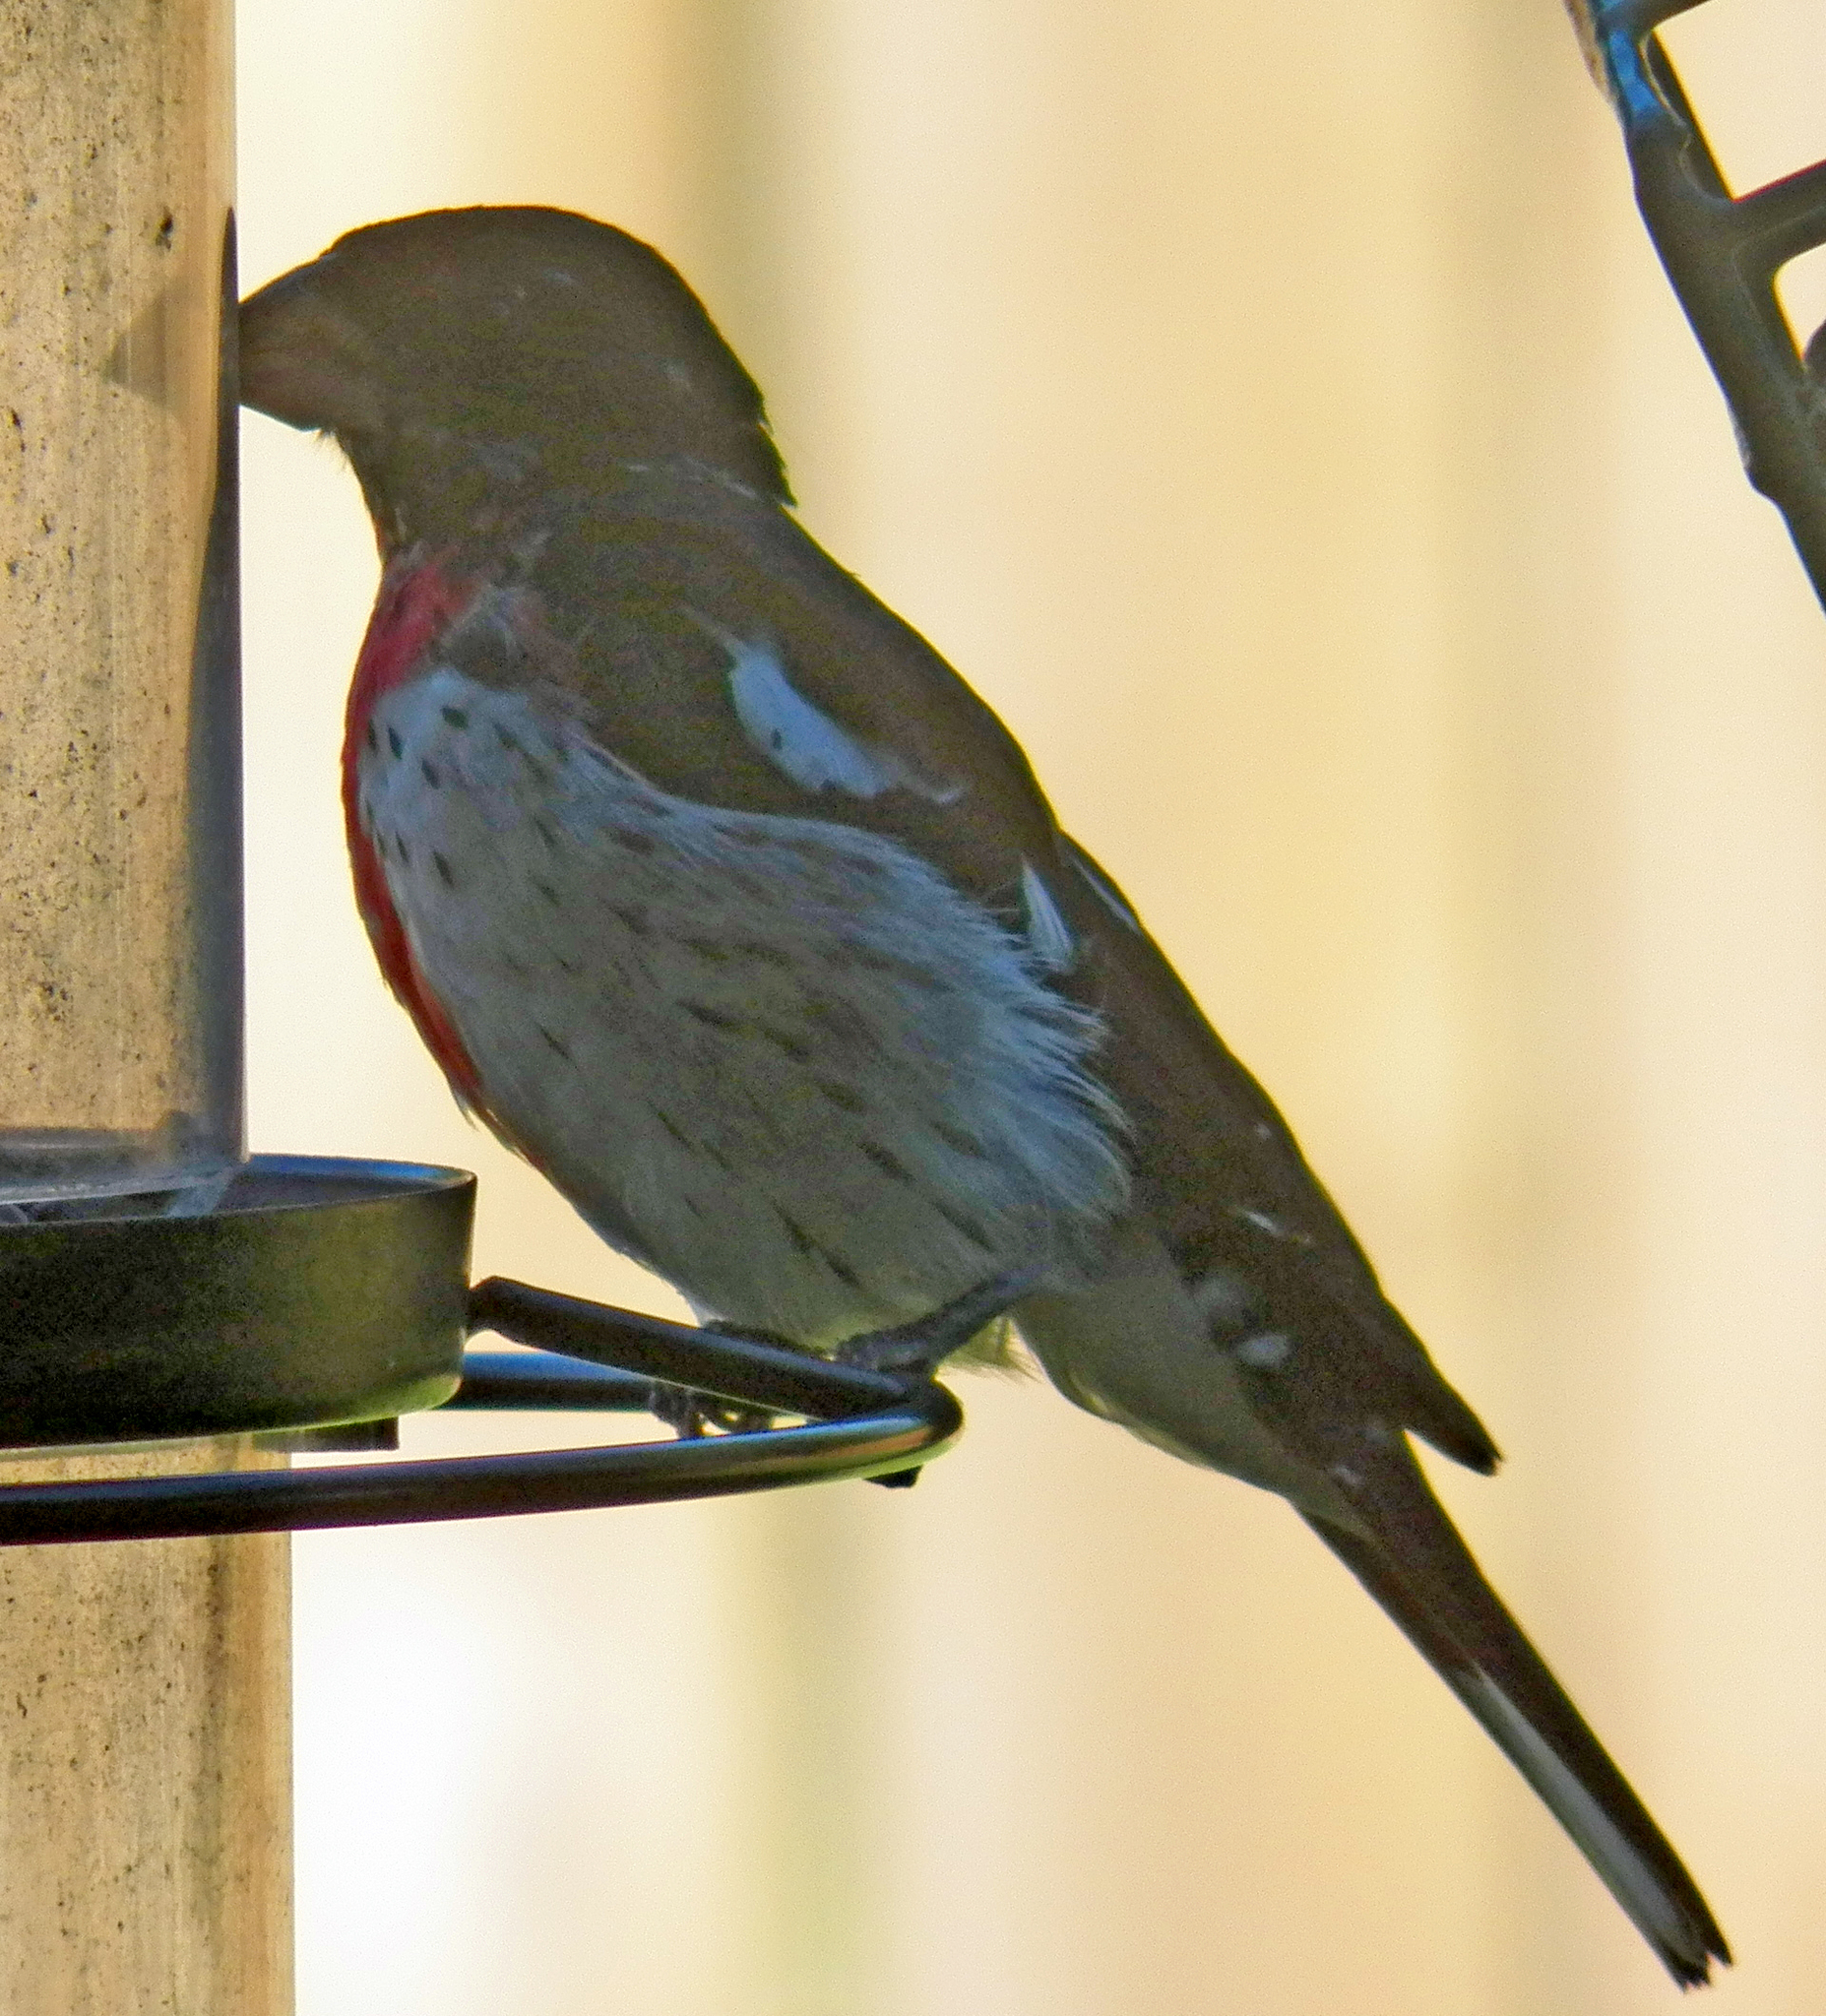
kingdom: Animalia
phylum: Chordata
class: Aves
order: Passeriformes
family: Cardinalidae
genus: Pheucticus
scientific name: Pheucticus ludovicianus
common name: Rose-breasted grosbeak
